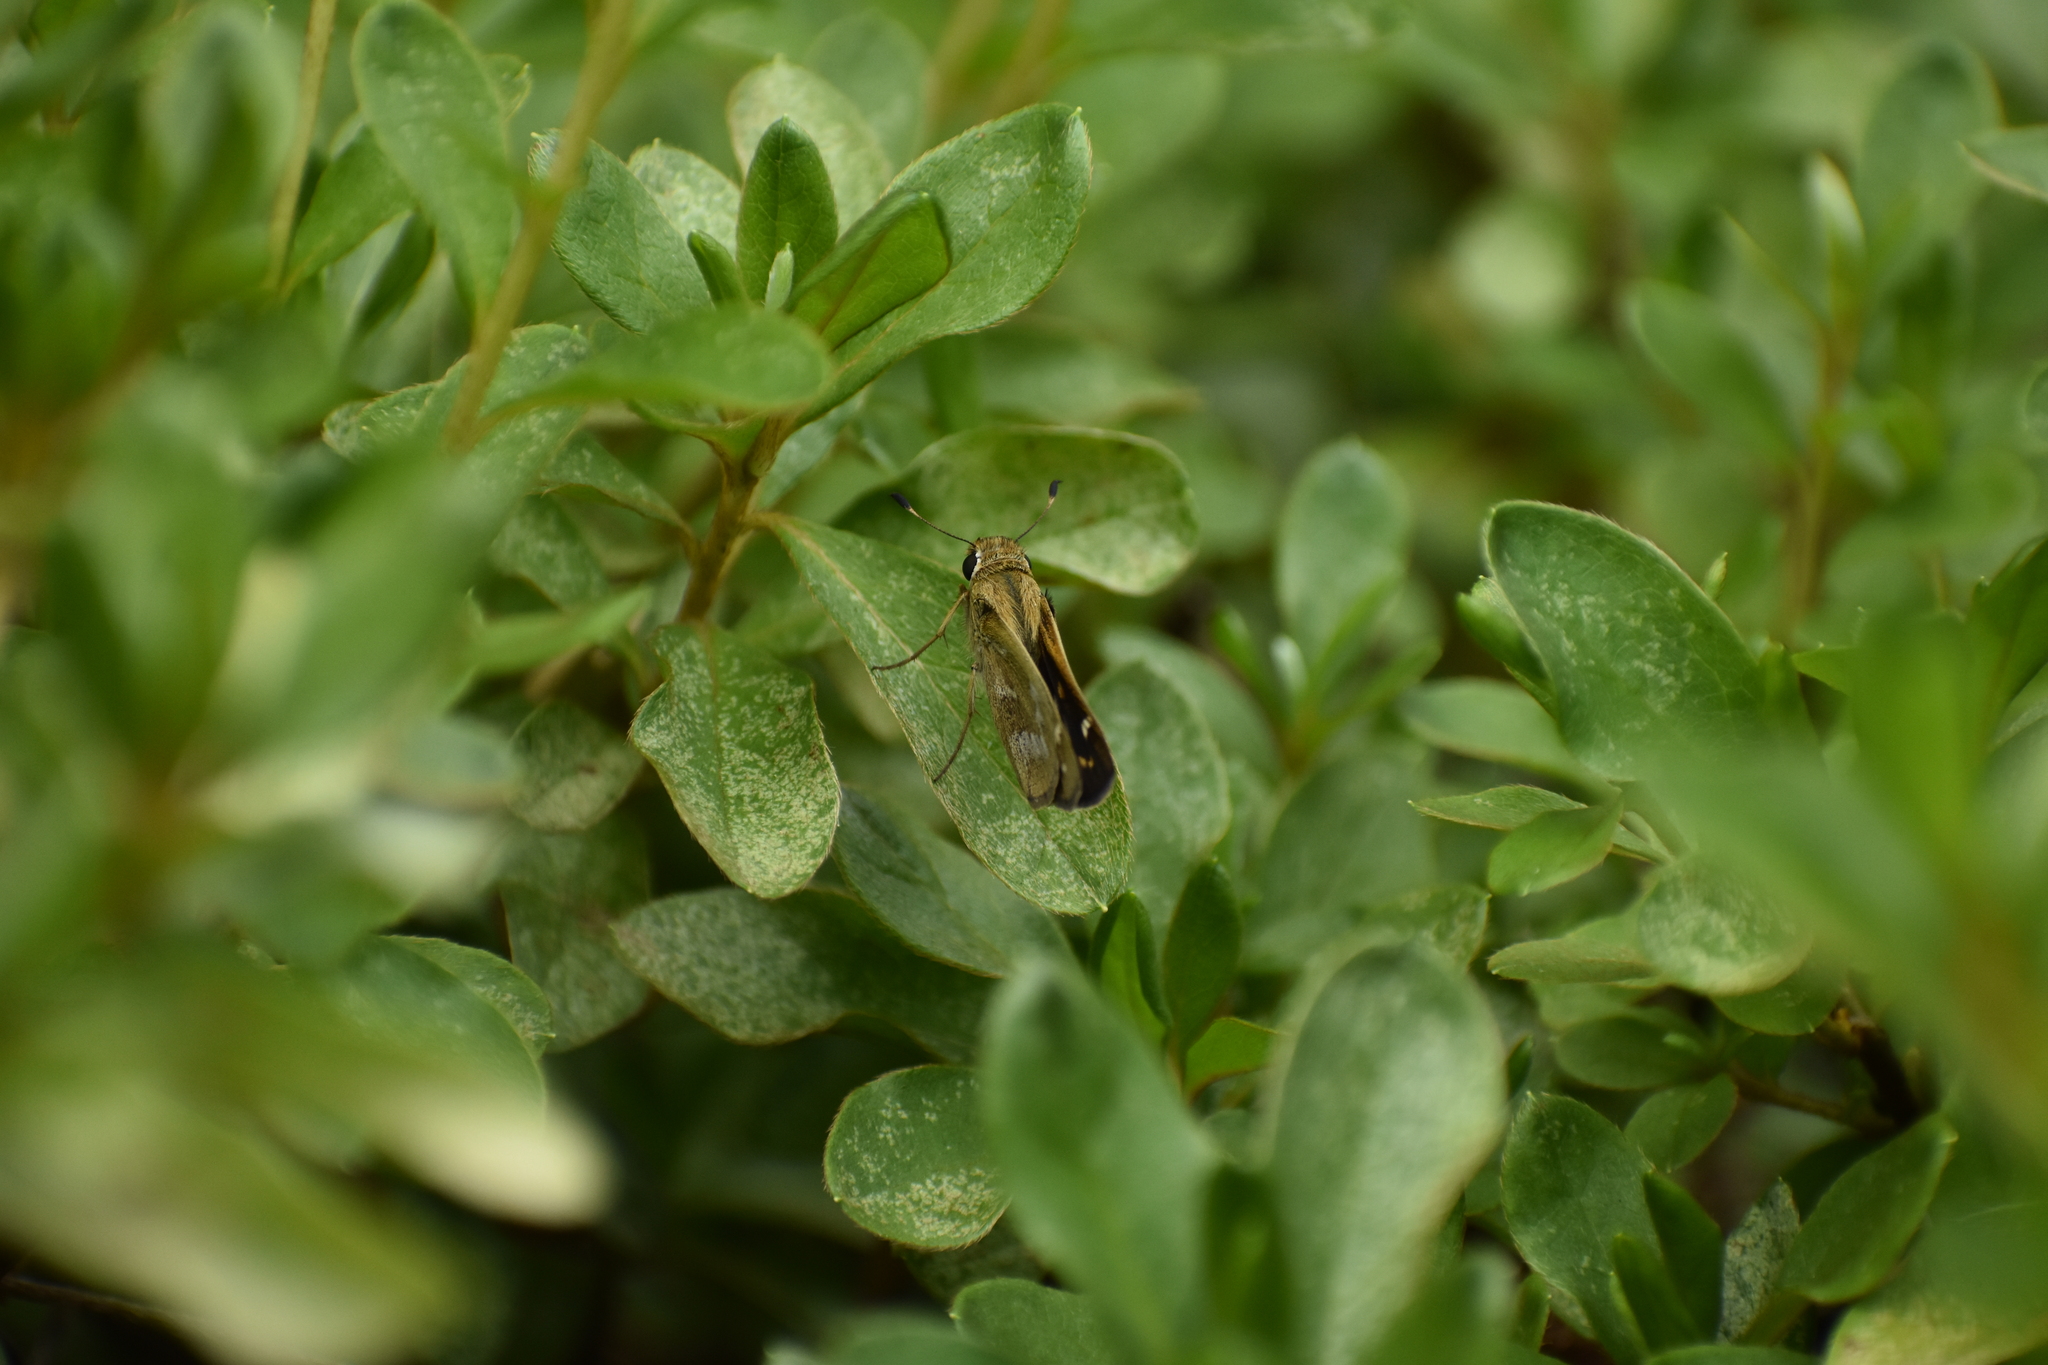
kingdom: Animalia
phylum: Arthropoda
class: Insecta
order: Lepidoptera
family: Hesperiidae
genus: Atalopedes
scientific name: Atalopedes
